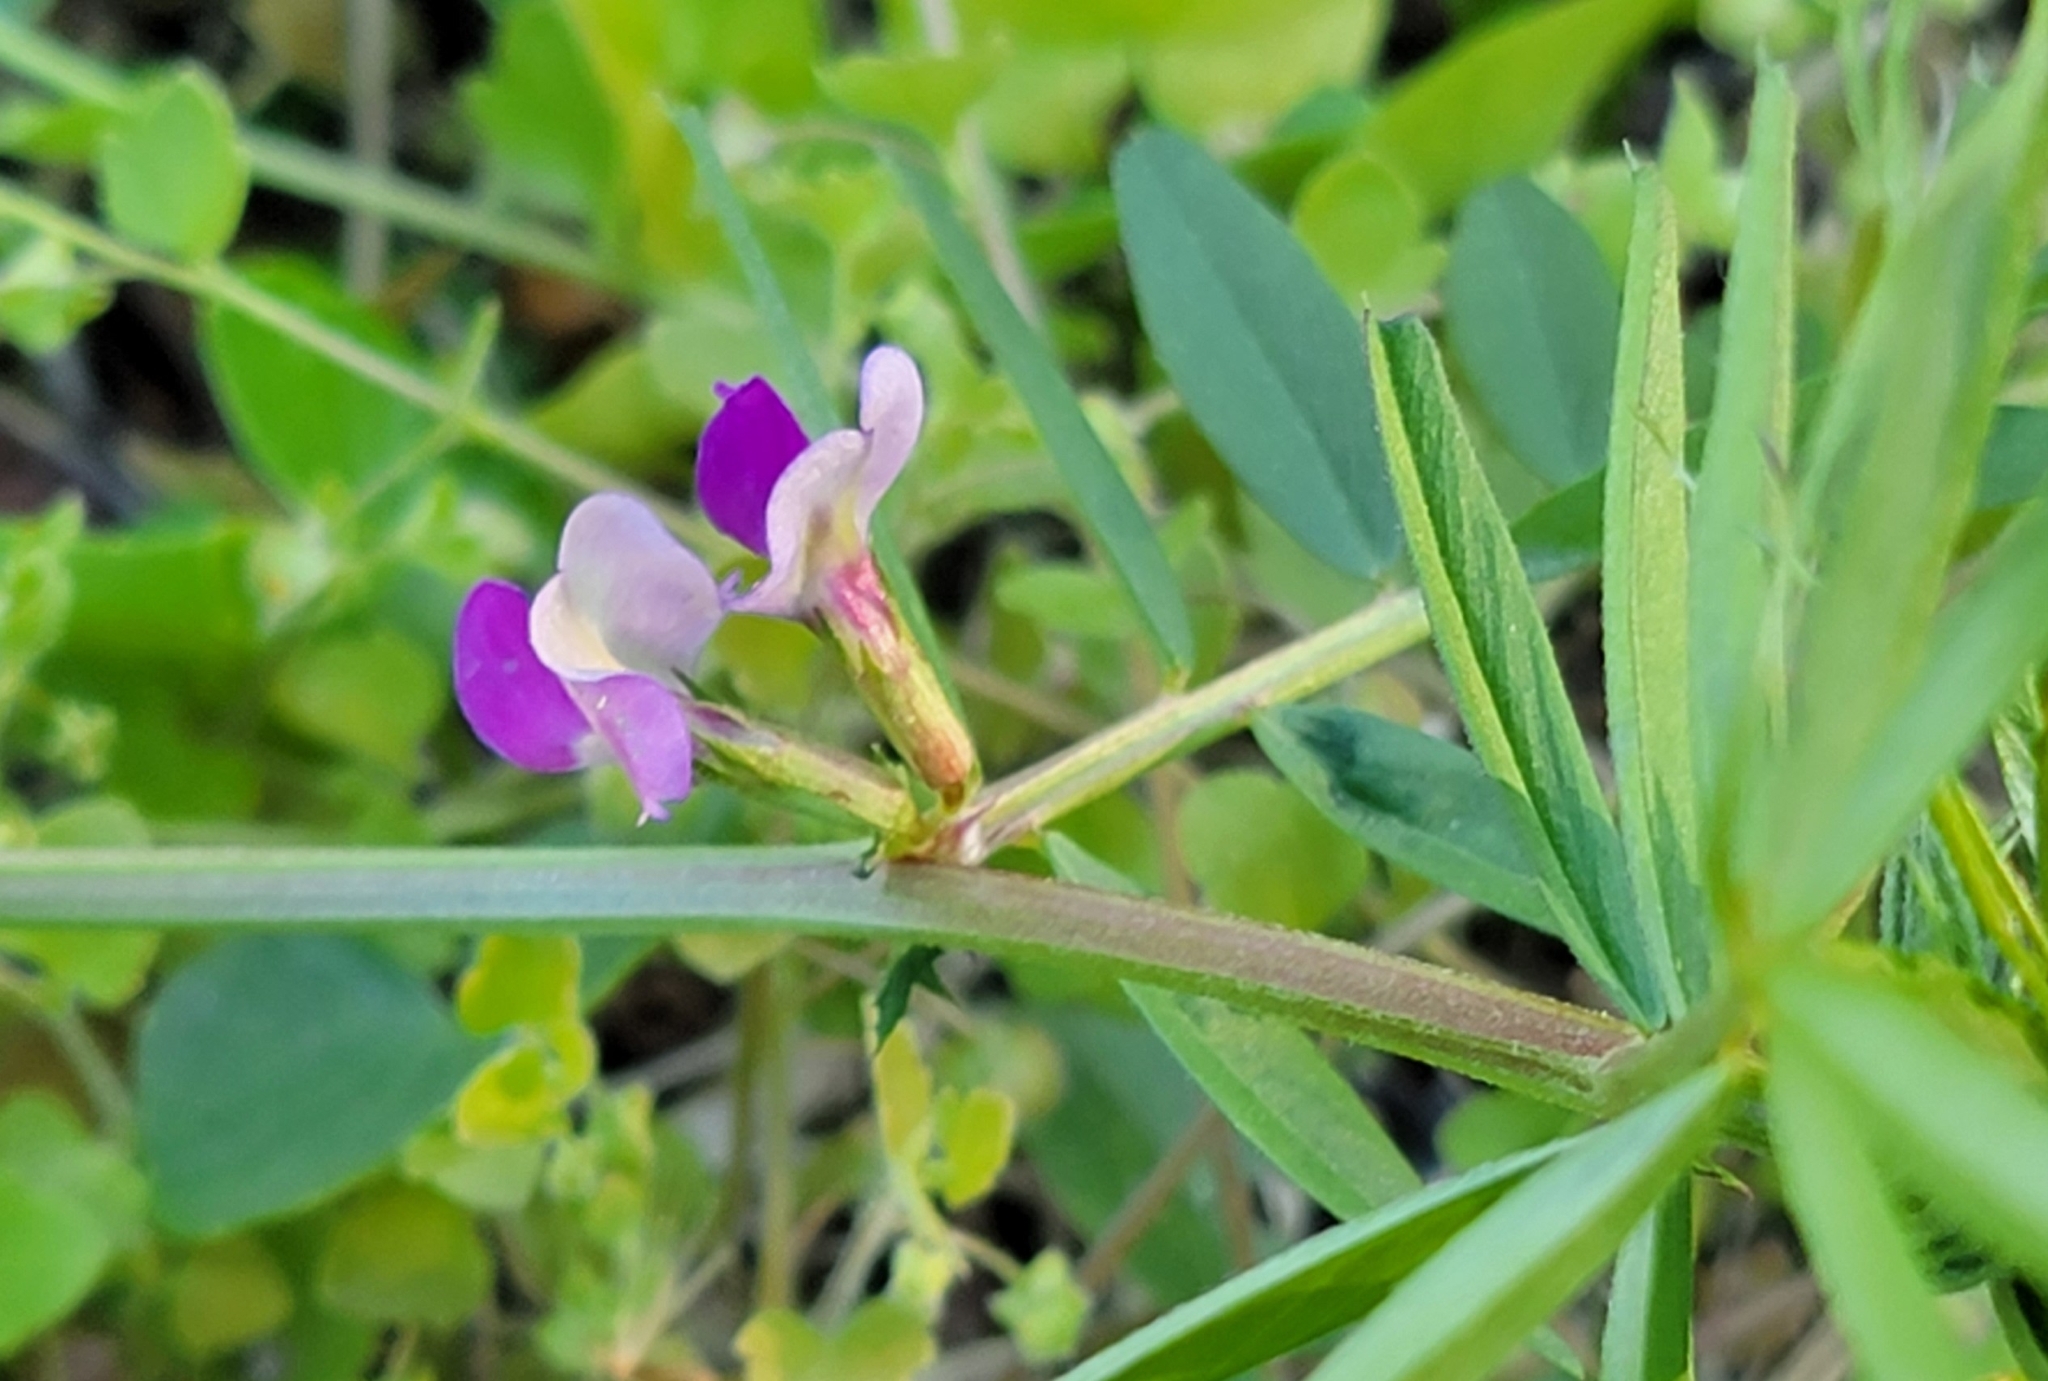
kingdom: Plantae
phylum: Tracheophyta
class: Magnoliopsida
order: Fabales
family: Fabaceae
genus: Vicia
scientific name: Vicia sativa
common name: Garden vetch
